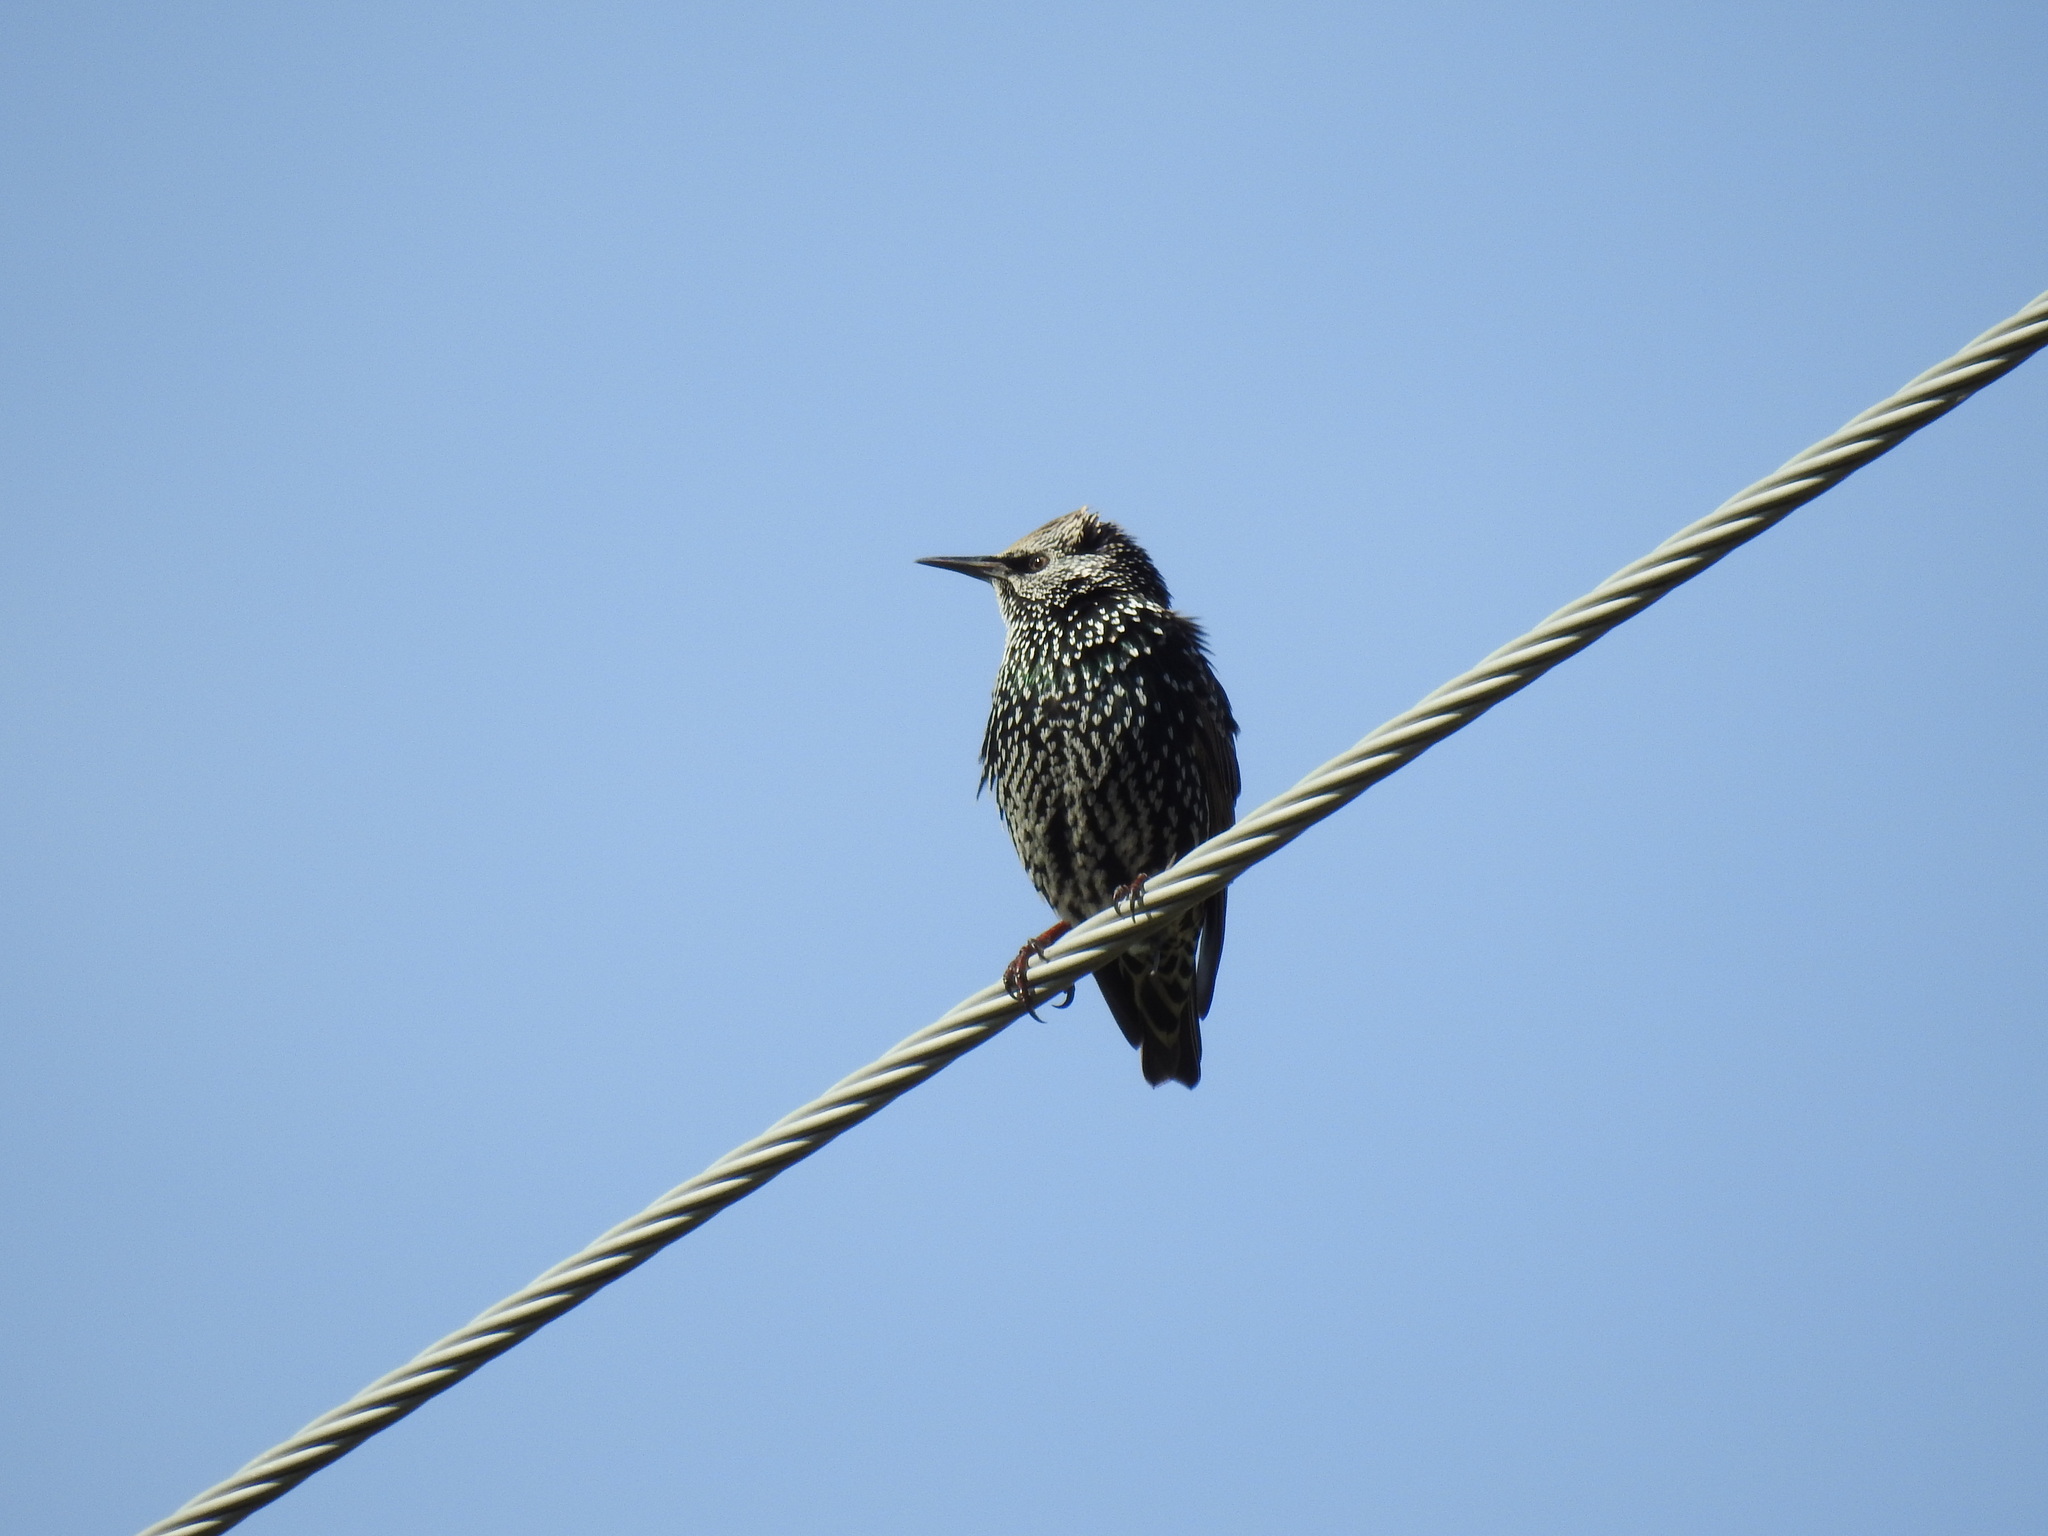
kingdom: Animalia
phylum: Chordata
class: Aves
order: Passeriformes
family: Sturnidae
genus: Sturnus
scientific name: Sturnus vulgaris
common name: Common starling
